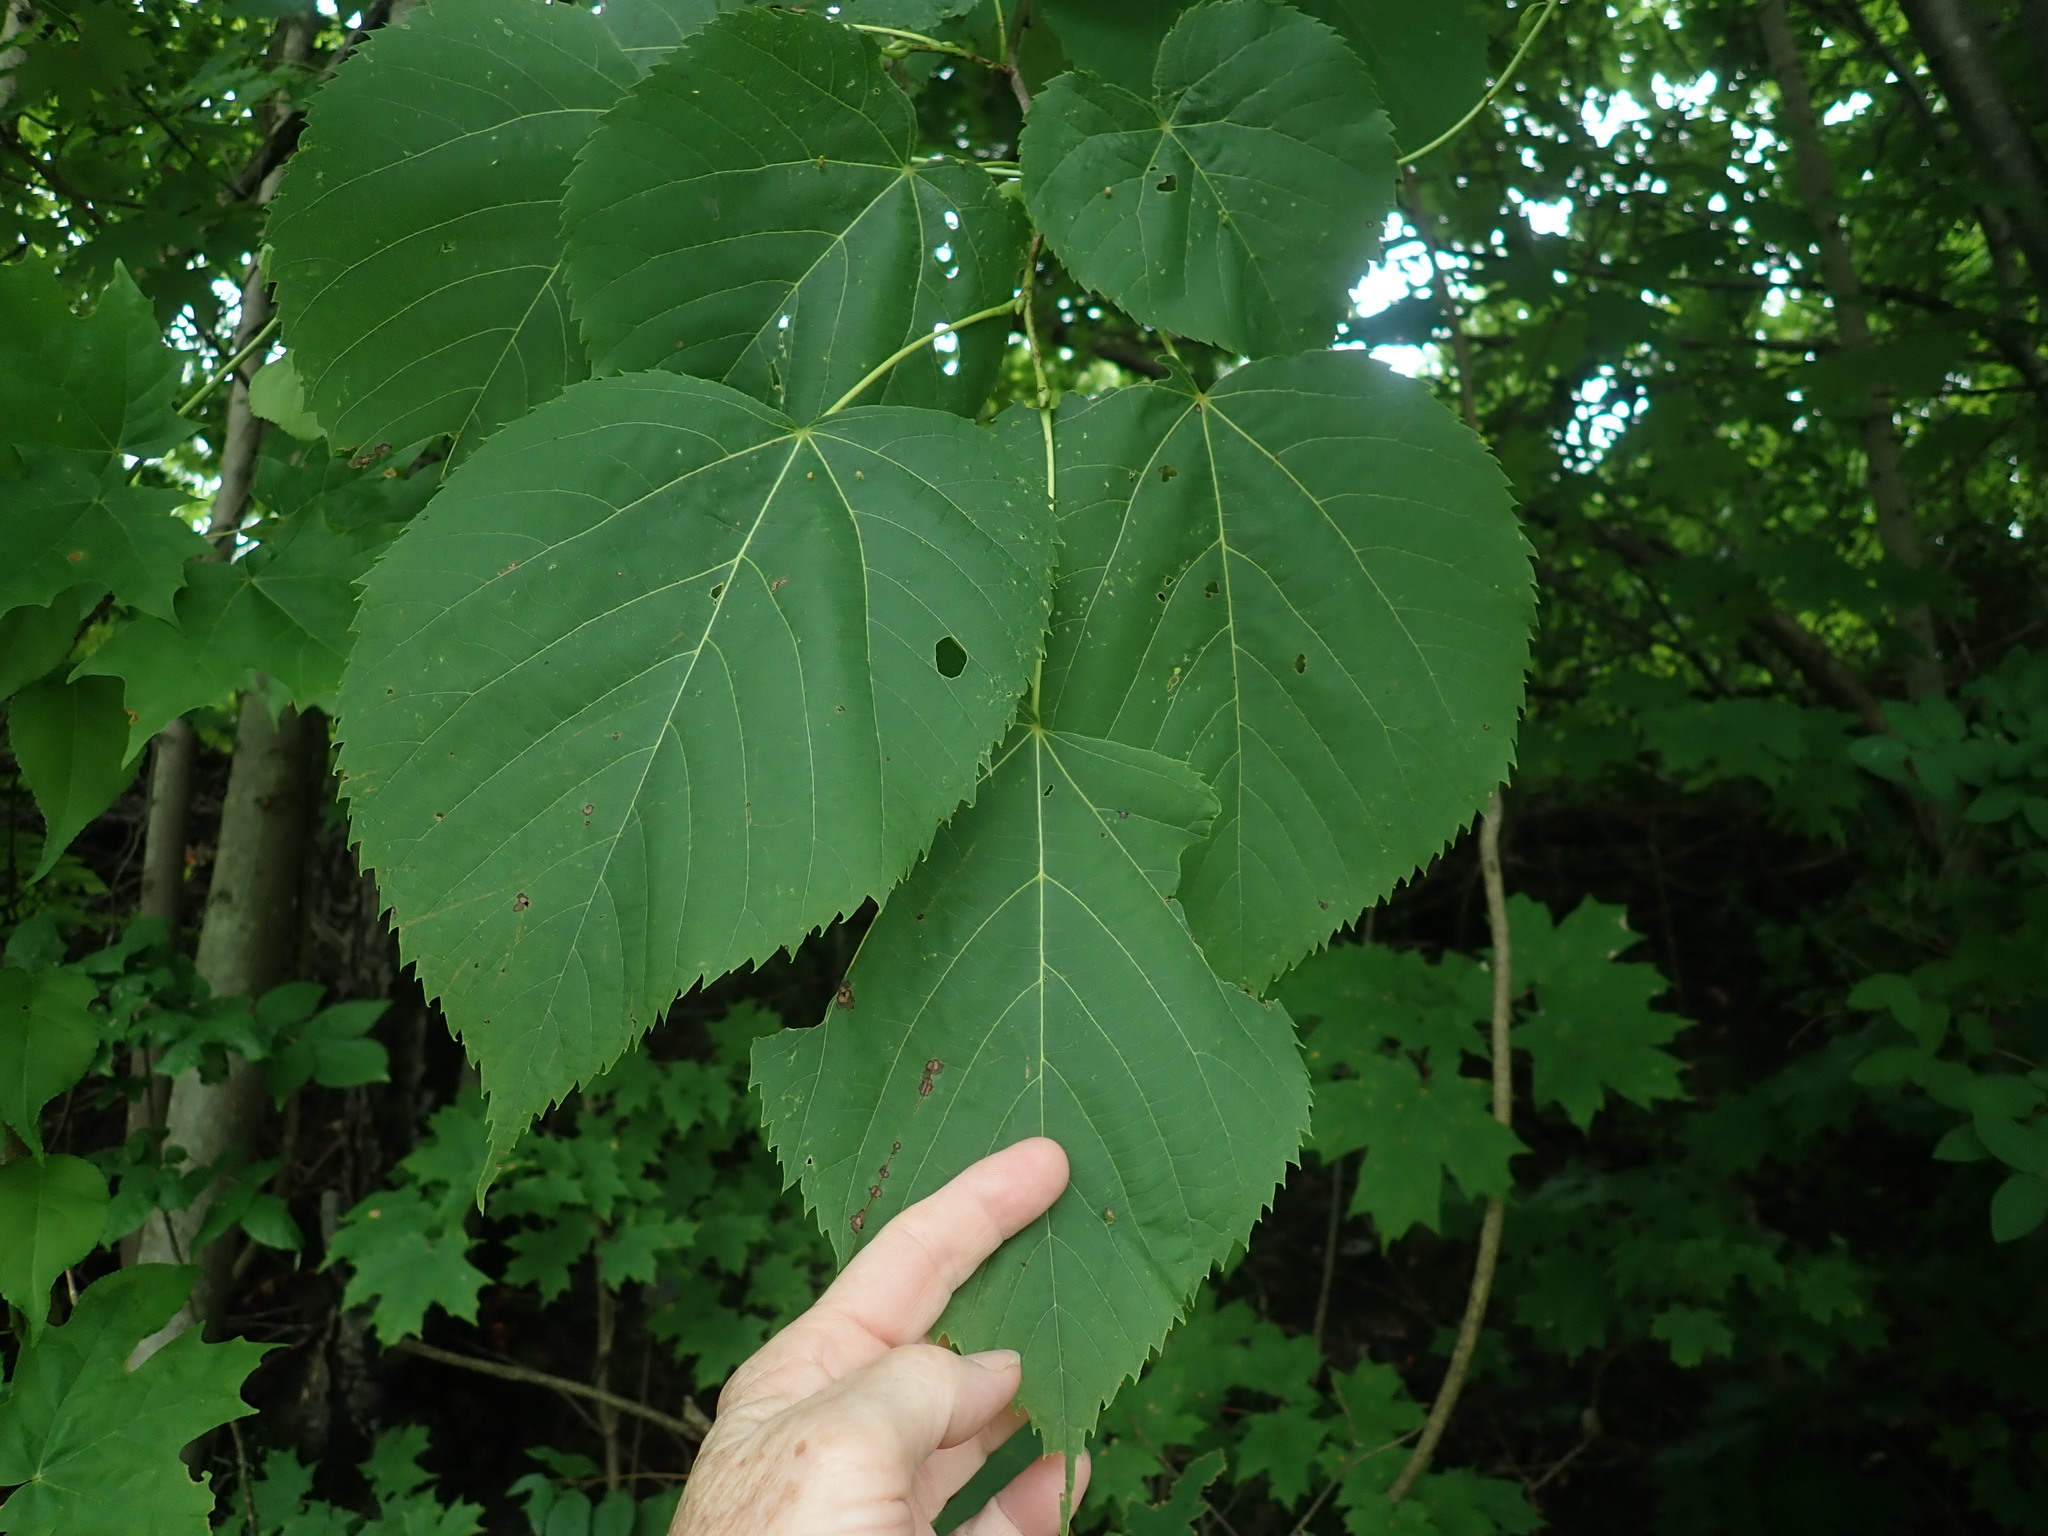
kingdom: Plantae
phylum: Tracheophyta
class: Magnoliopsida
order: Malvales
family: Malvaceae
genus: Tilia
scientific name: Tilia americana
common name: Basswood
